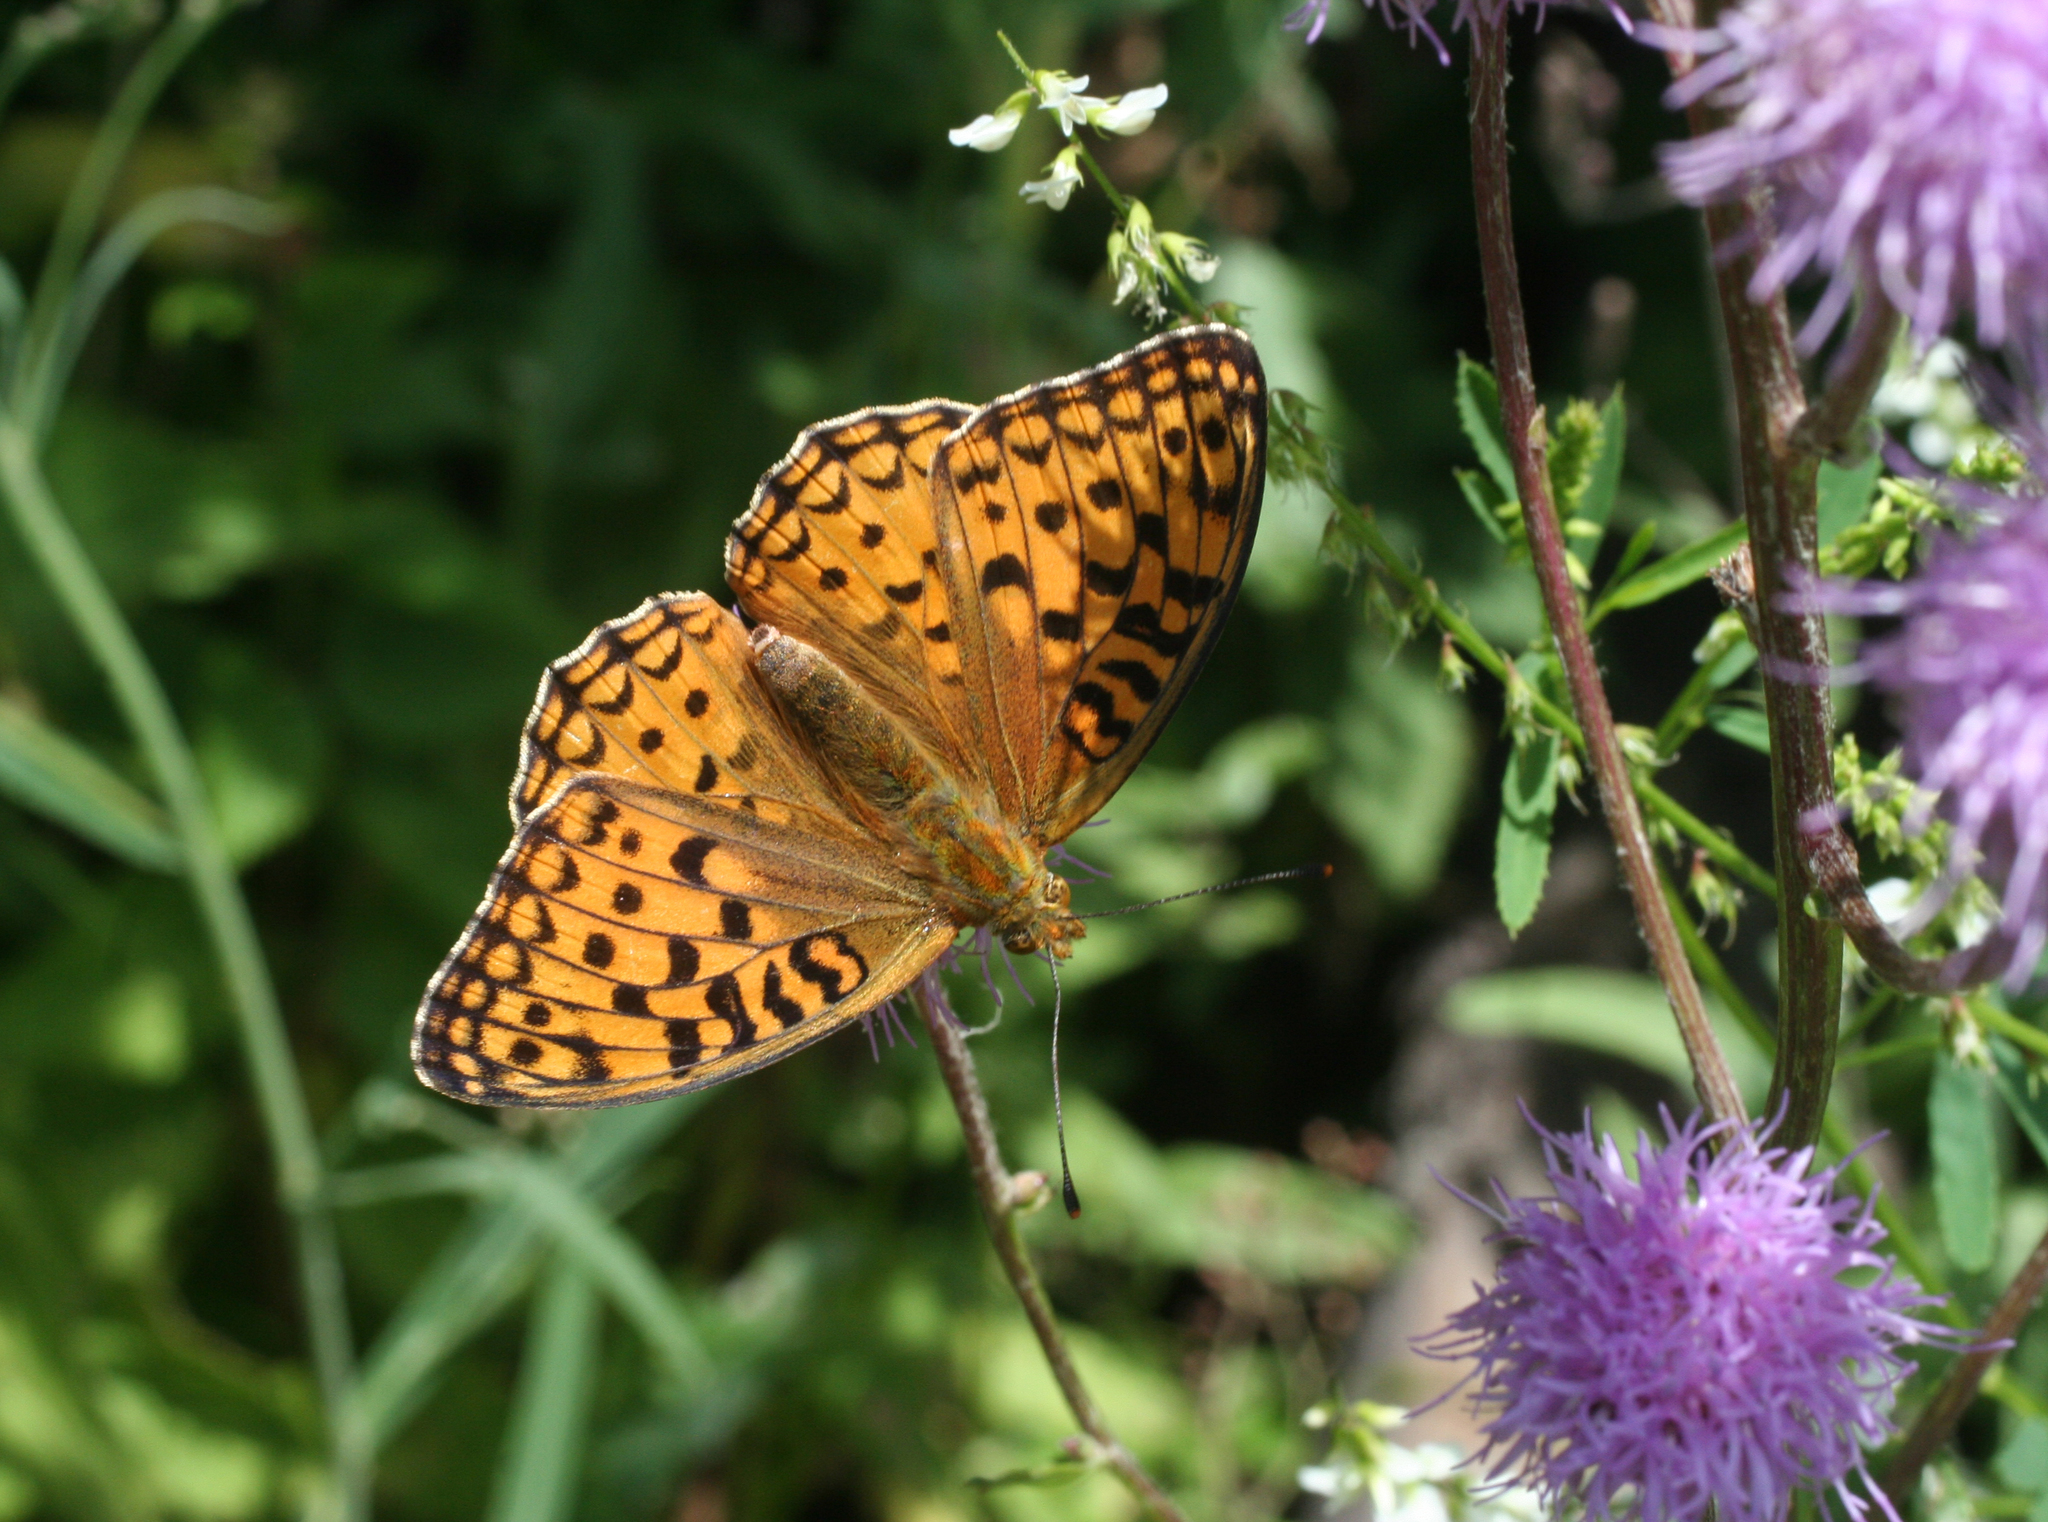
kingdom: Animalia
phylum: Arthropoda
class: Insecta
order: Lepidoptera
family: Nymphalidae
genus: Fabriciana
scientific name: Fabriciana adippe
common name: High brown fritillary
